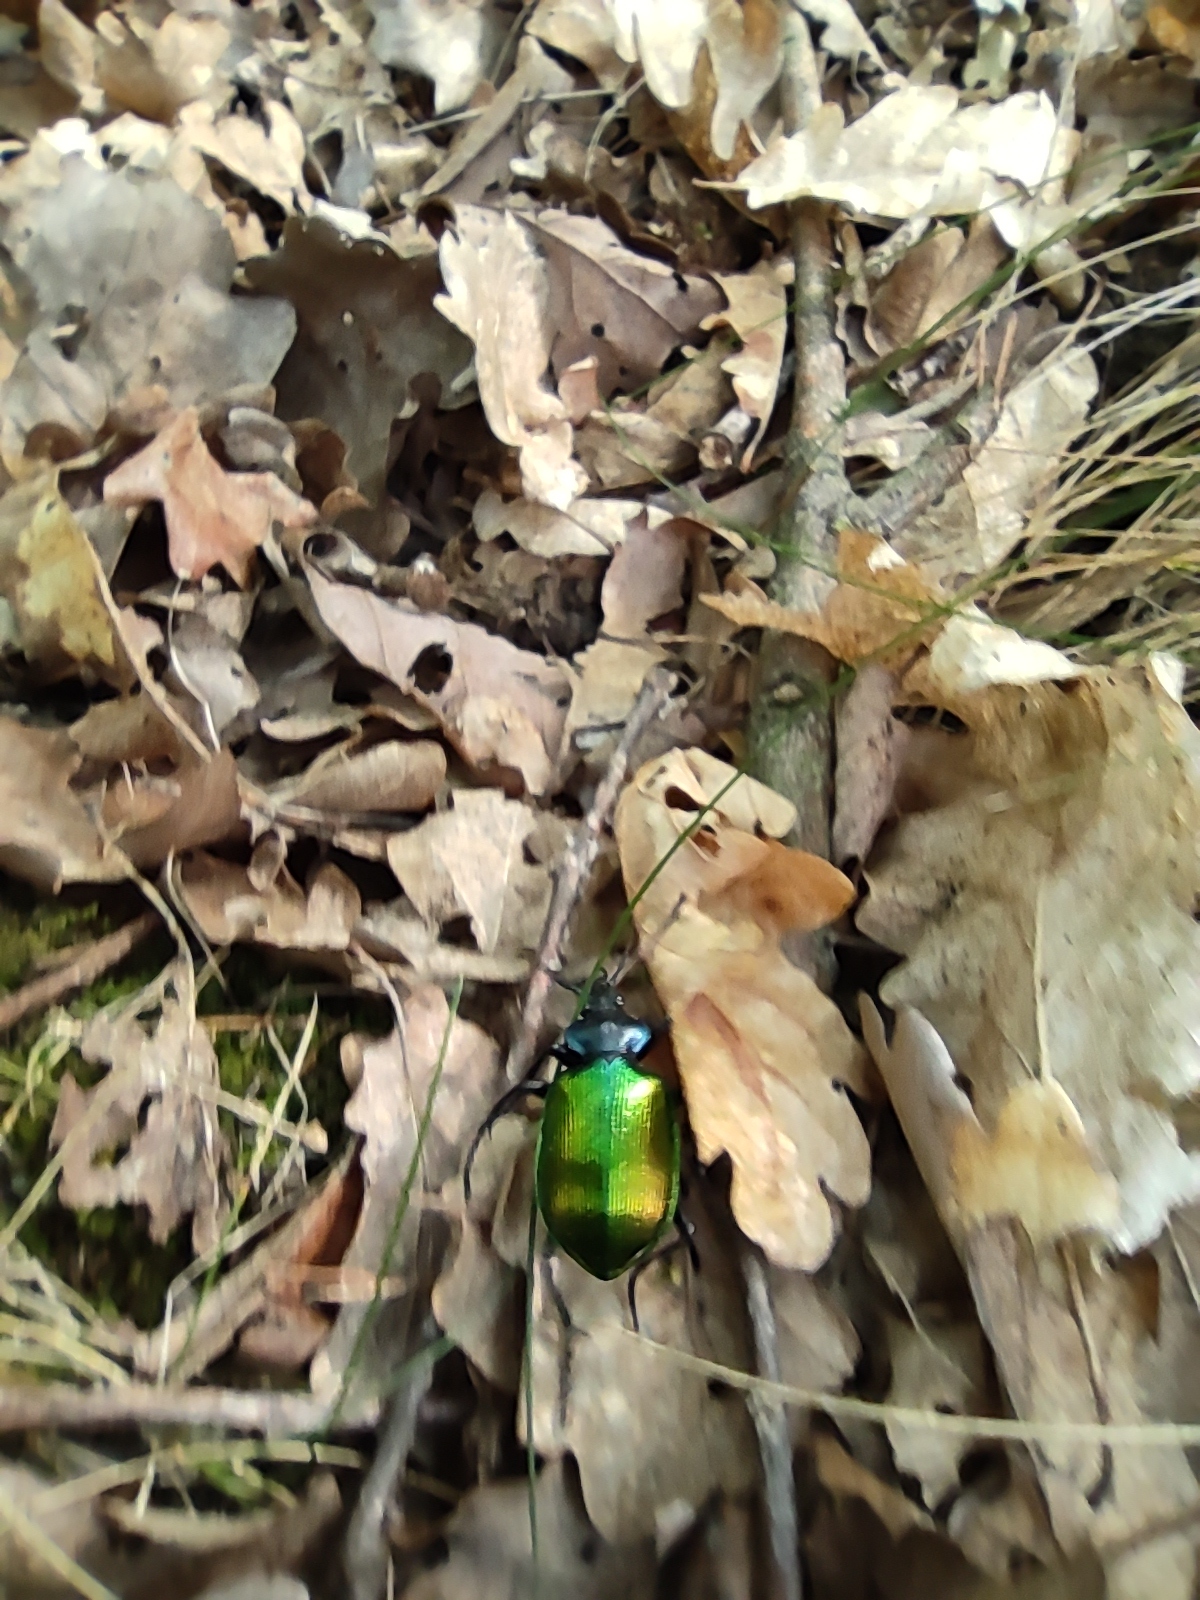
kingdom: Animalia
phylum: Arthropoda
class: Insecta
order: Coleoptera
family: Carabidae
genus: Calosoma
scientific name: Calosoma sycophanta
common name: Forest caterpillar hunter
